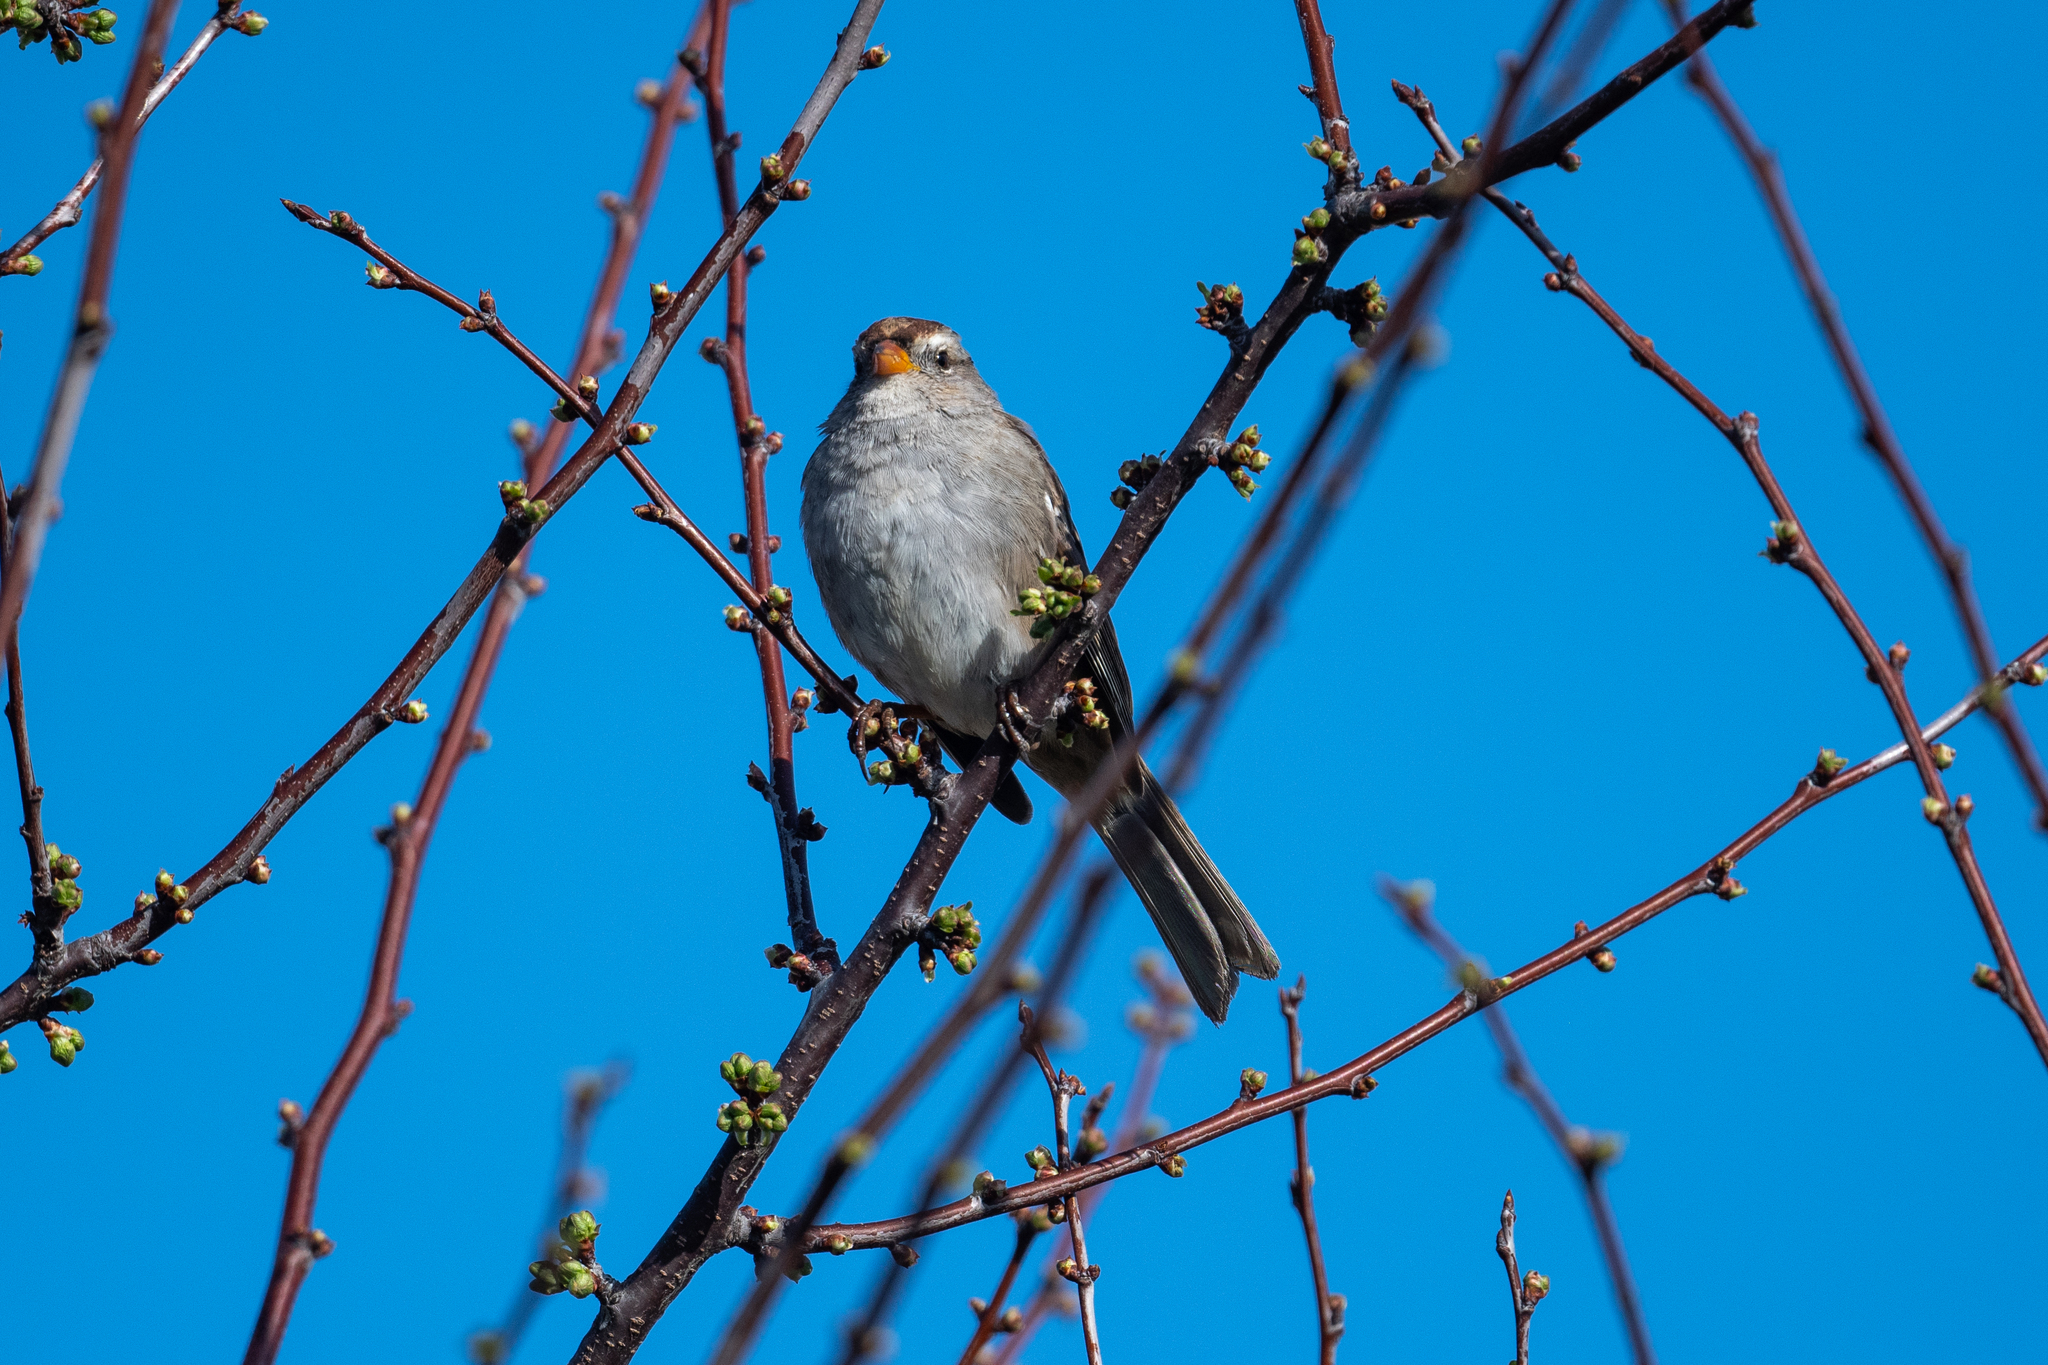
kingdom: Animalia
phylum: Chordata
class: Aves
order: Passeriformes
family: Passerellidae
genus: Zonotrichia
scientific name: Zonotrichia leucophrys
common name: White-crowned sparrow
